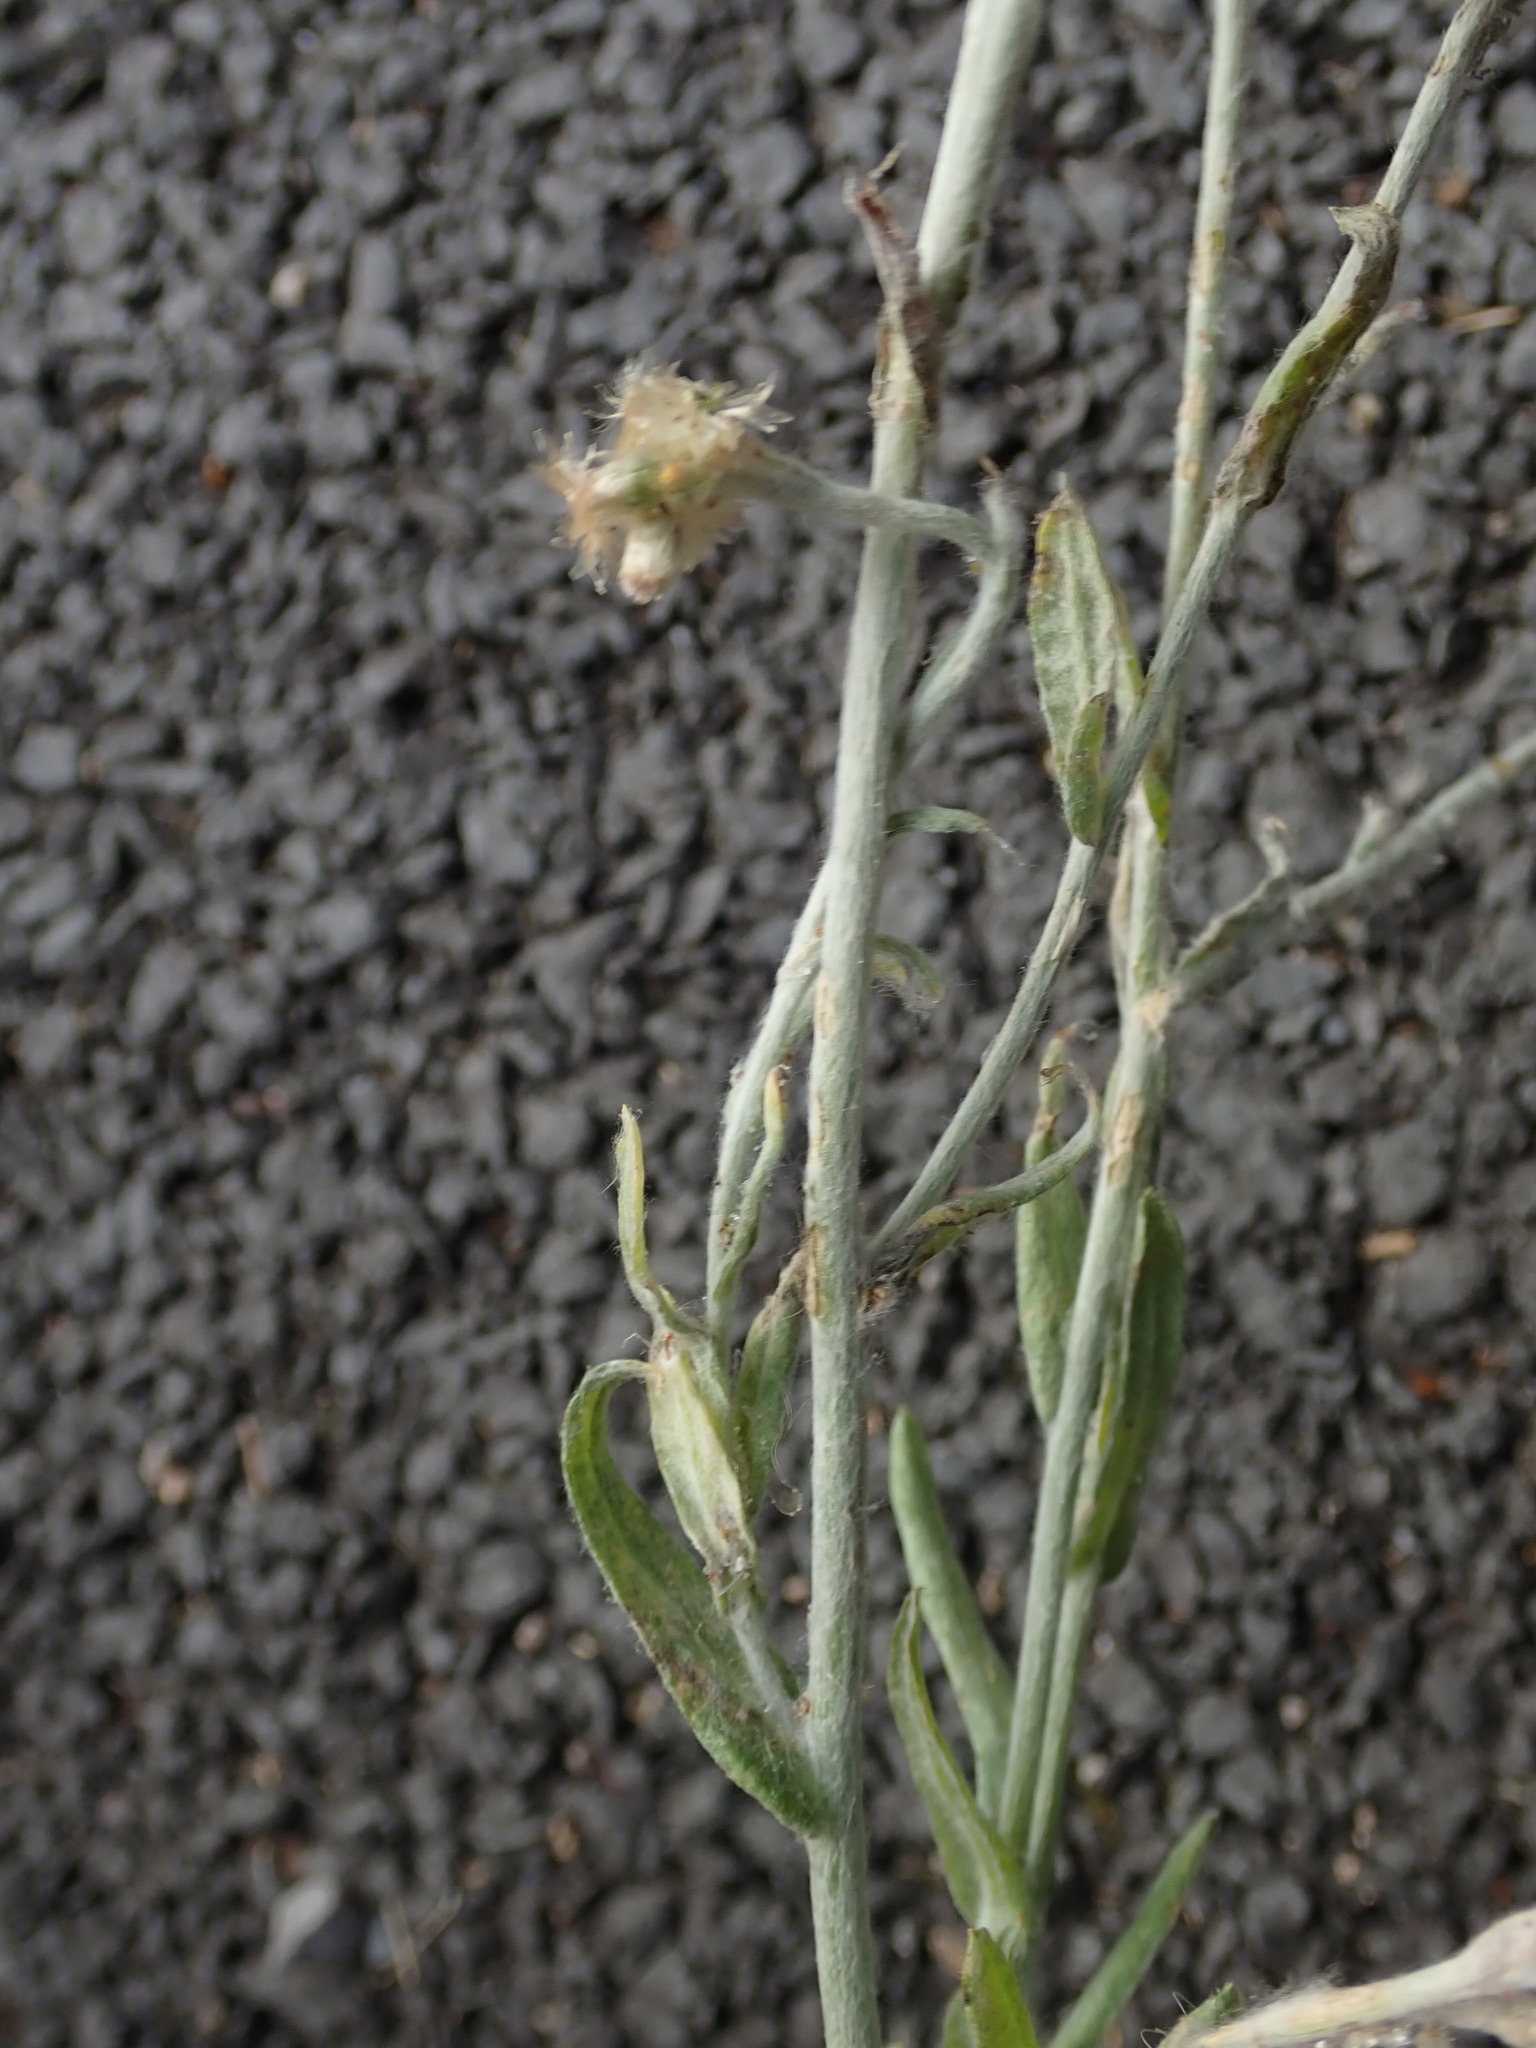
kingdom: Plantae
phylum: Tracheophyta
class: Magnoliopsida
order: Asterales
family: Asteraceae
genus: Helichrysum
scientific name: Helichrysum luteoalbum
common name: Daisy
